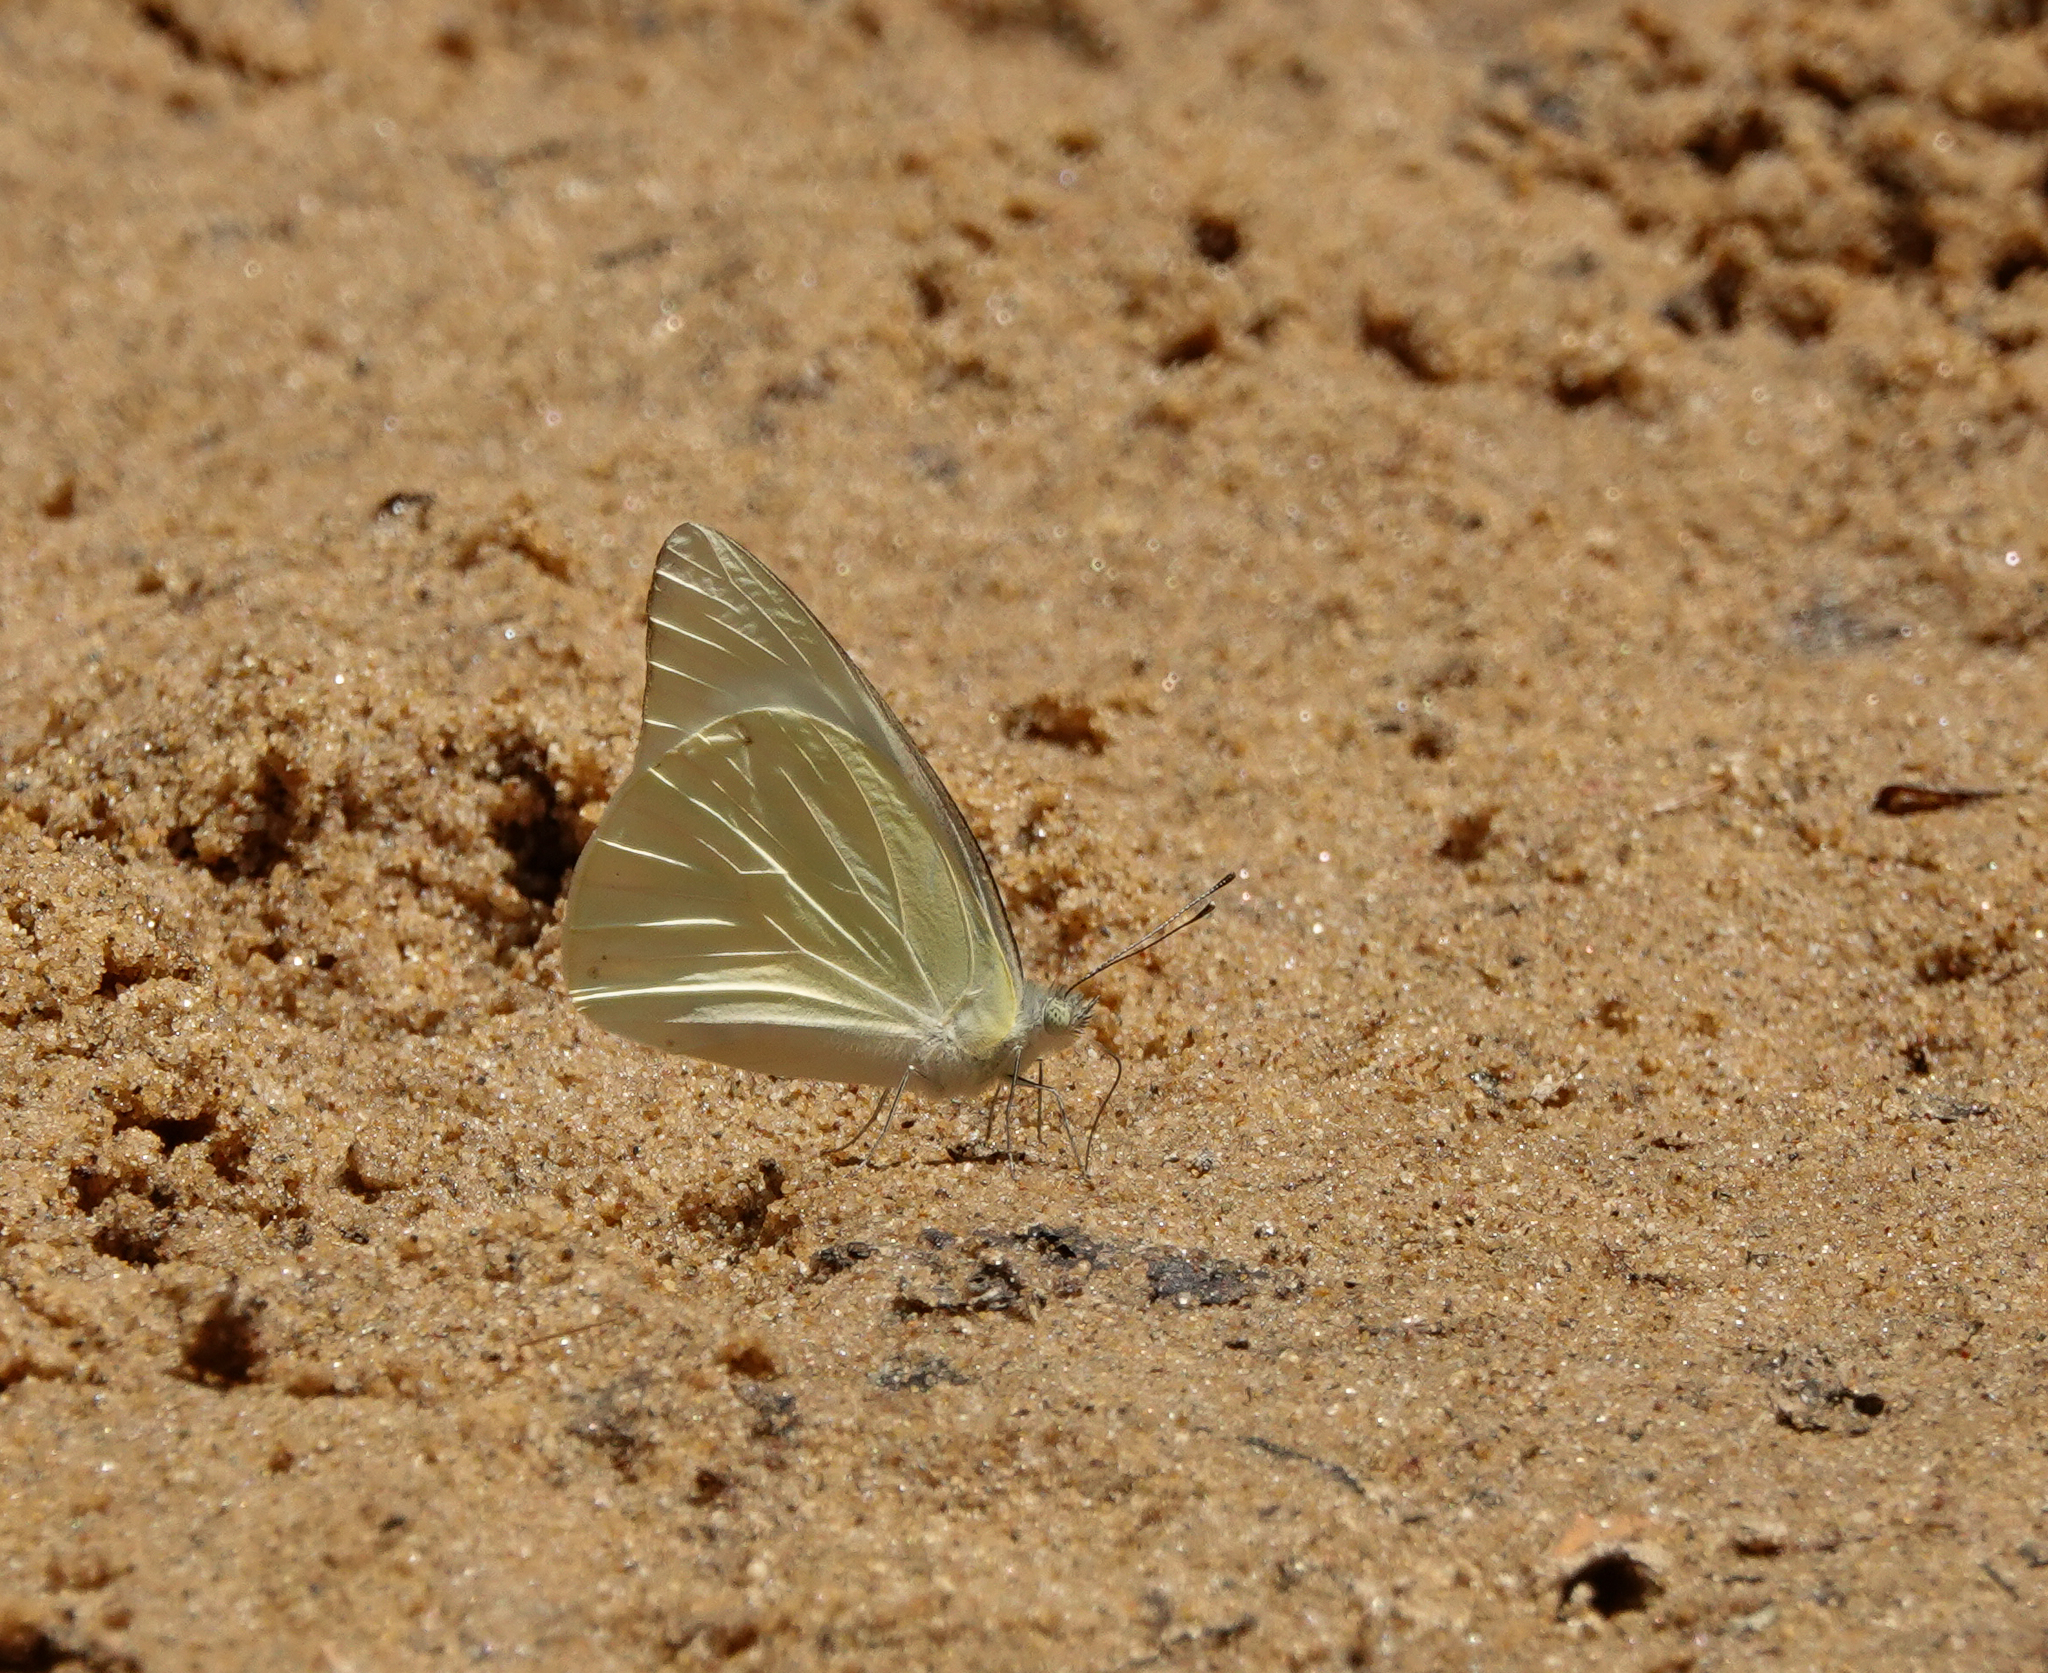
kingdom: Animalia
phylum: Arthropoda
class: Insecta
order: Lepidoptera
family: Pieridae
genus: Appias
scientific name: Appias albina
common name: Common albatross
